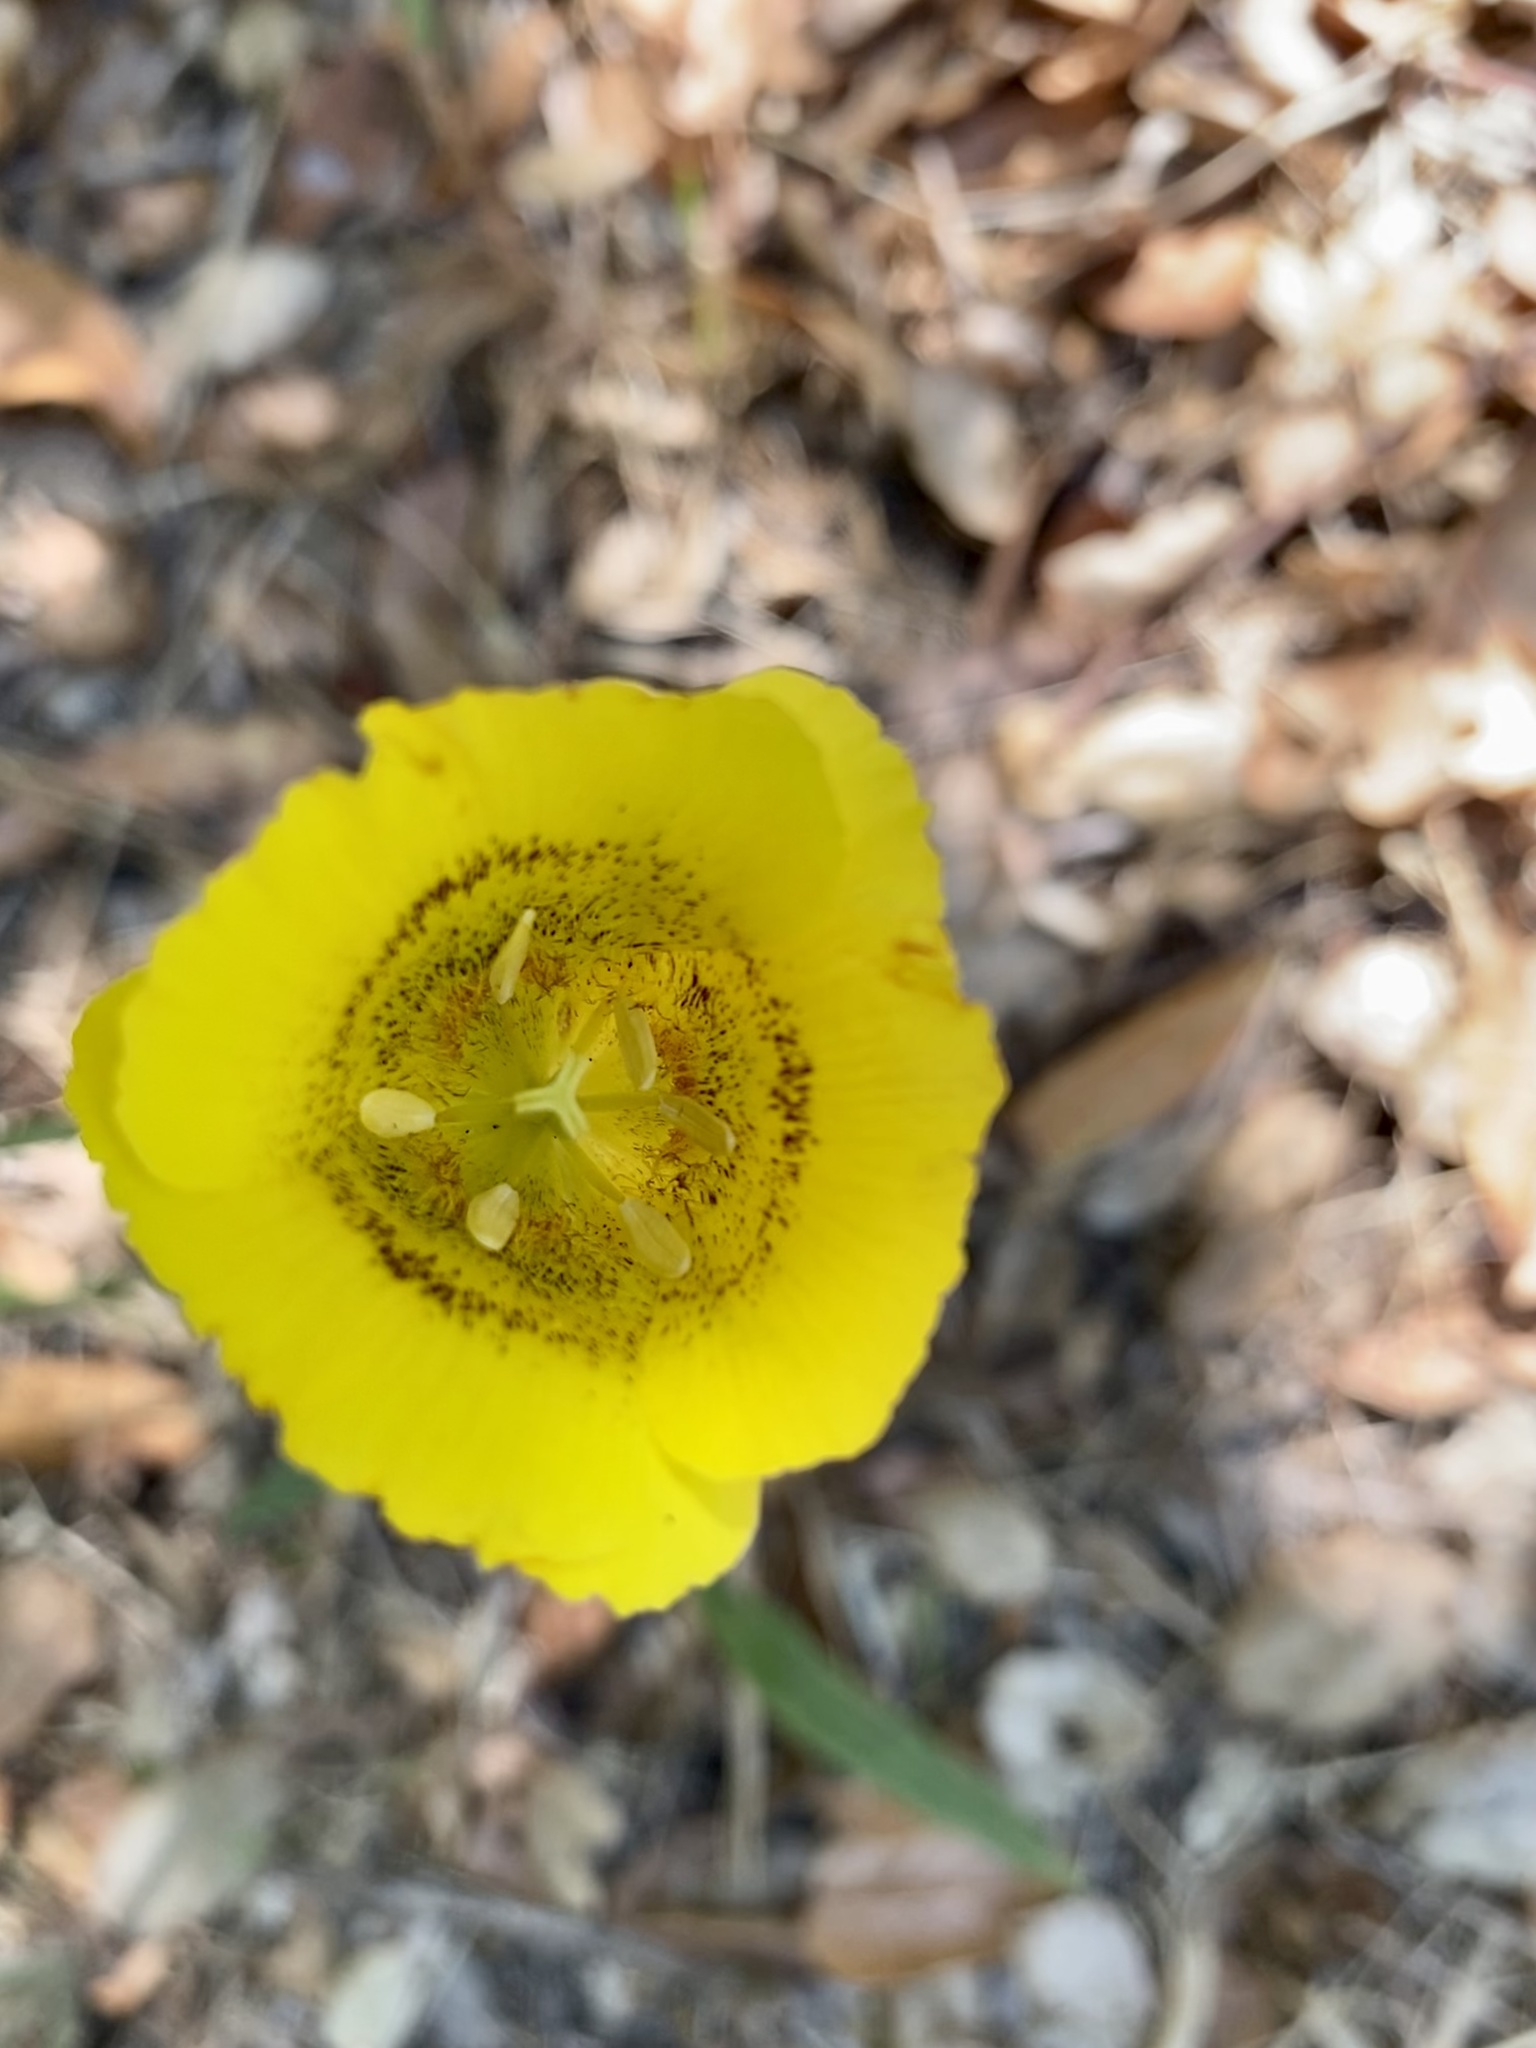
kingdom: Plantae
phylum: Tracheophyta
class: Liliopsida
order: Liliales
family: Liliaceae
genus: Calochortus
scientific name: Calochortus luteus
